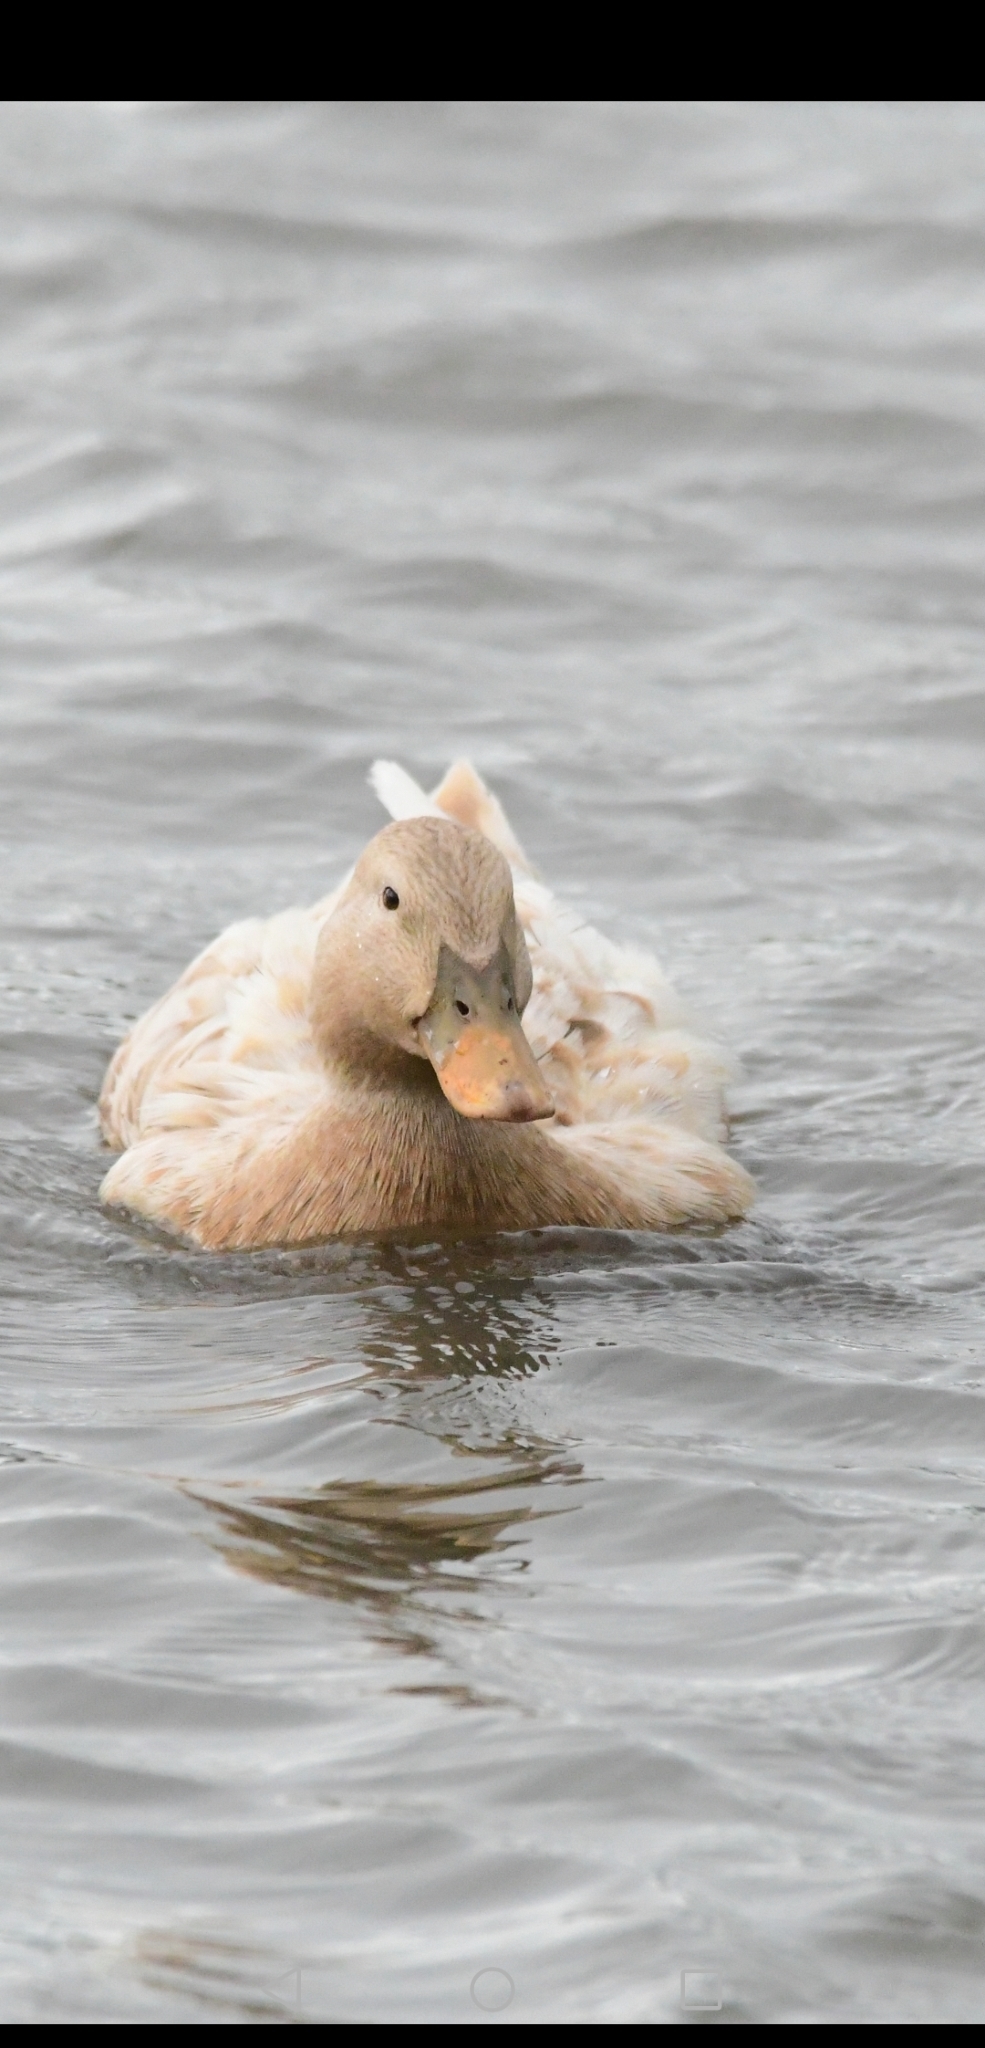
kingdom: Animalia
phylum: Chordata
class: Aves
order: Anseriformes
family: Anatidae
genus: Anas
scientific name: Anas platyrhynchos
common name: Mallard
